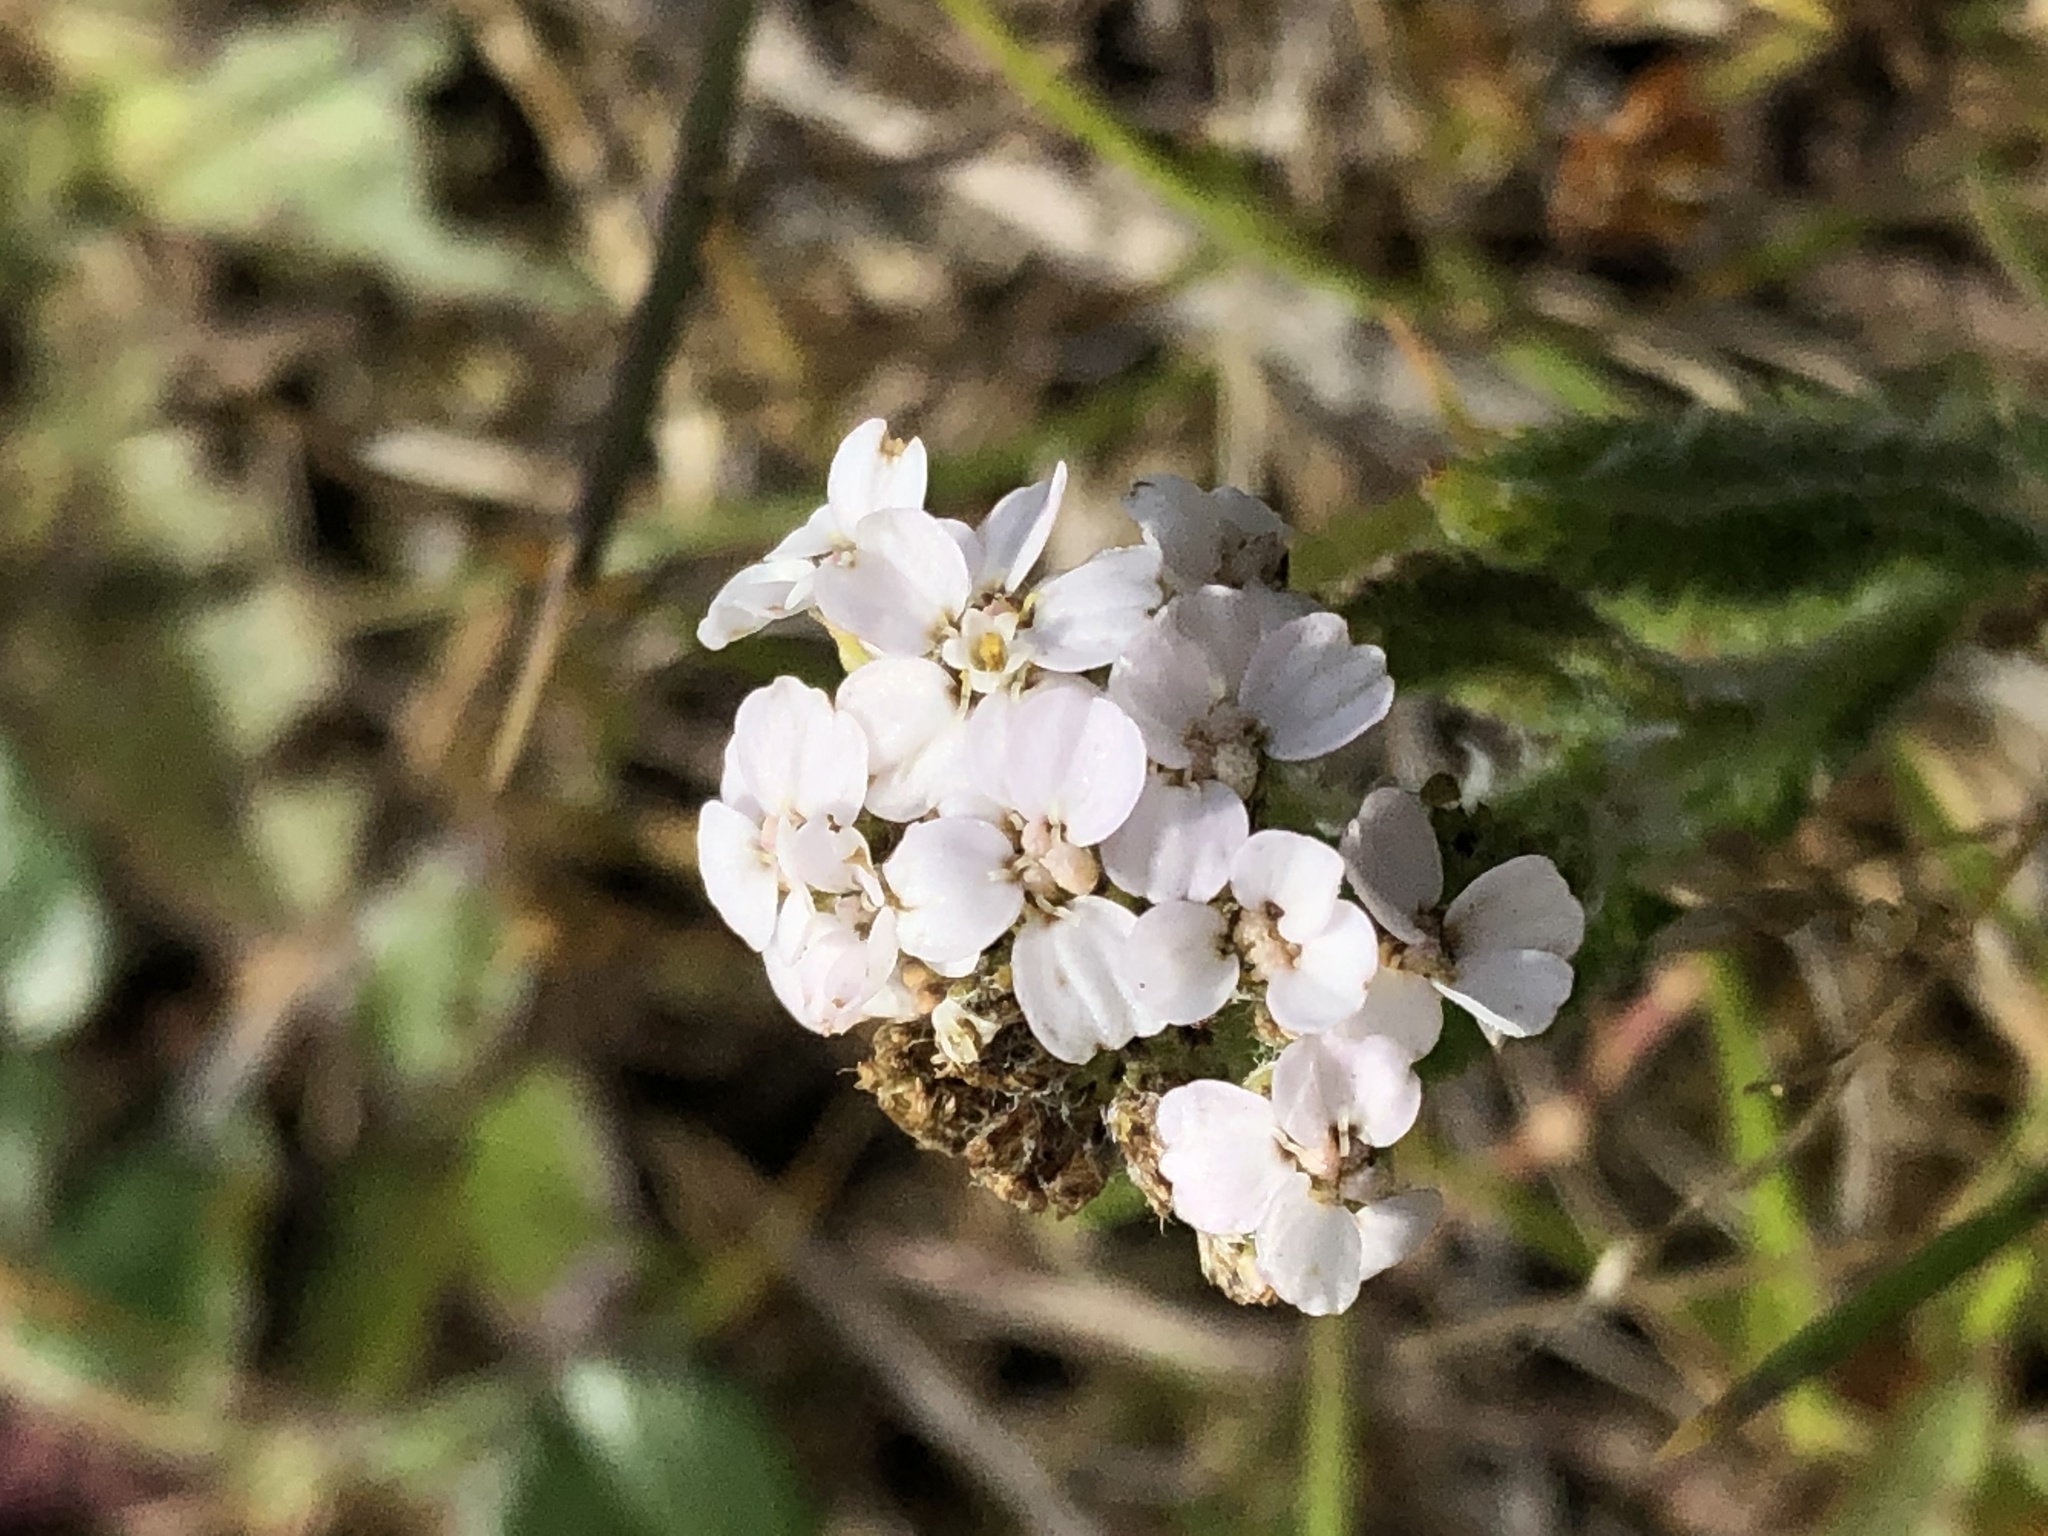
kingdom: Plantae
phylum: Tracheophyta
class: Magnoliopsida
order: Asterales
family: Asteraceae
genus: Achillea
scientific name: Achillea millefolium
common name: Yarrow
